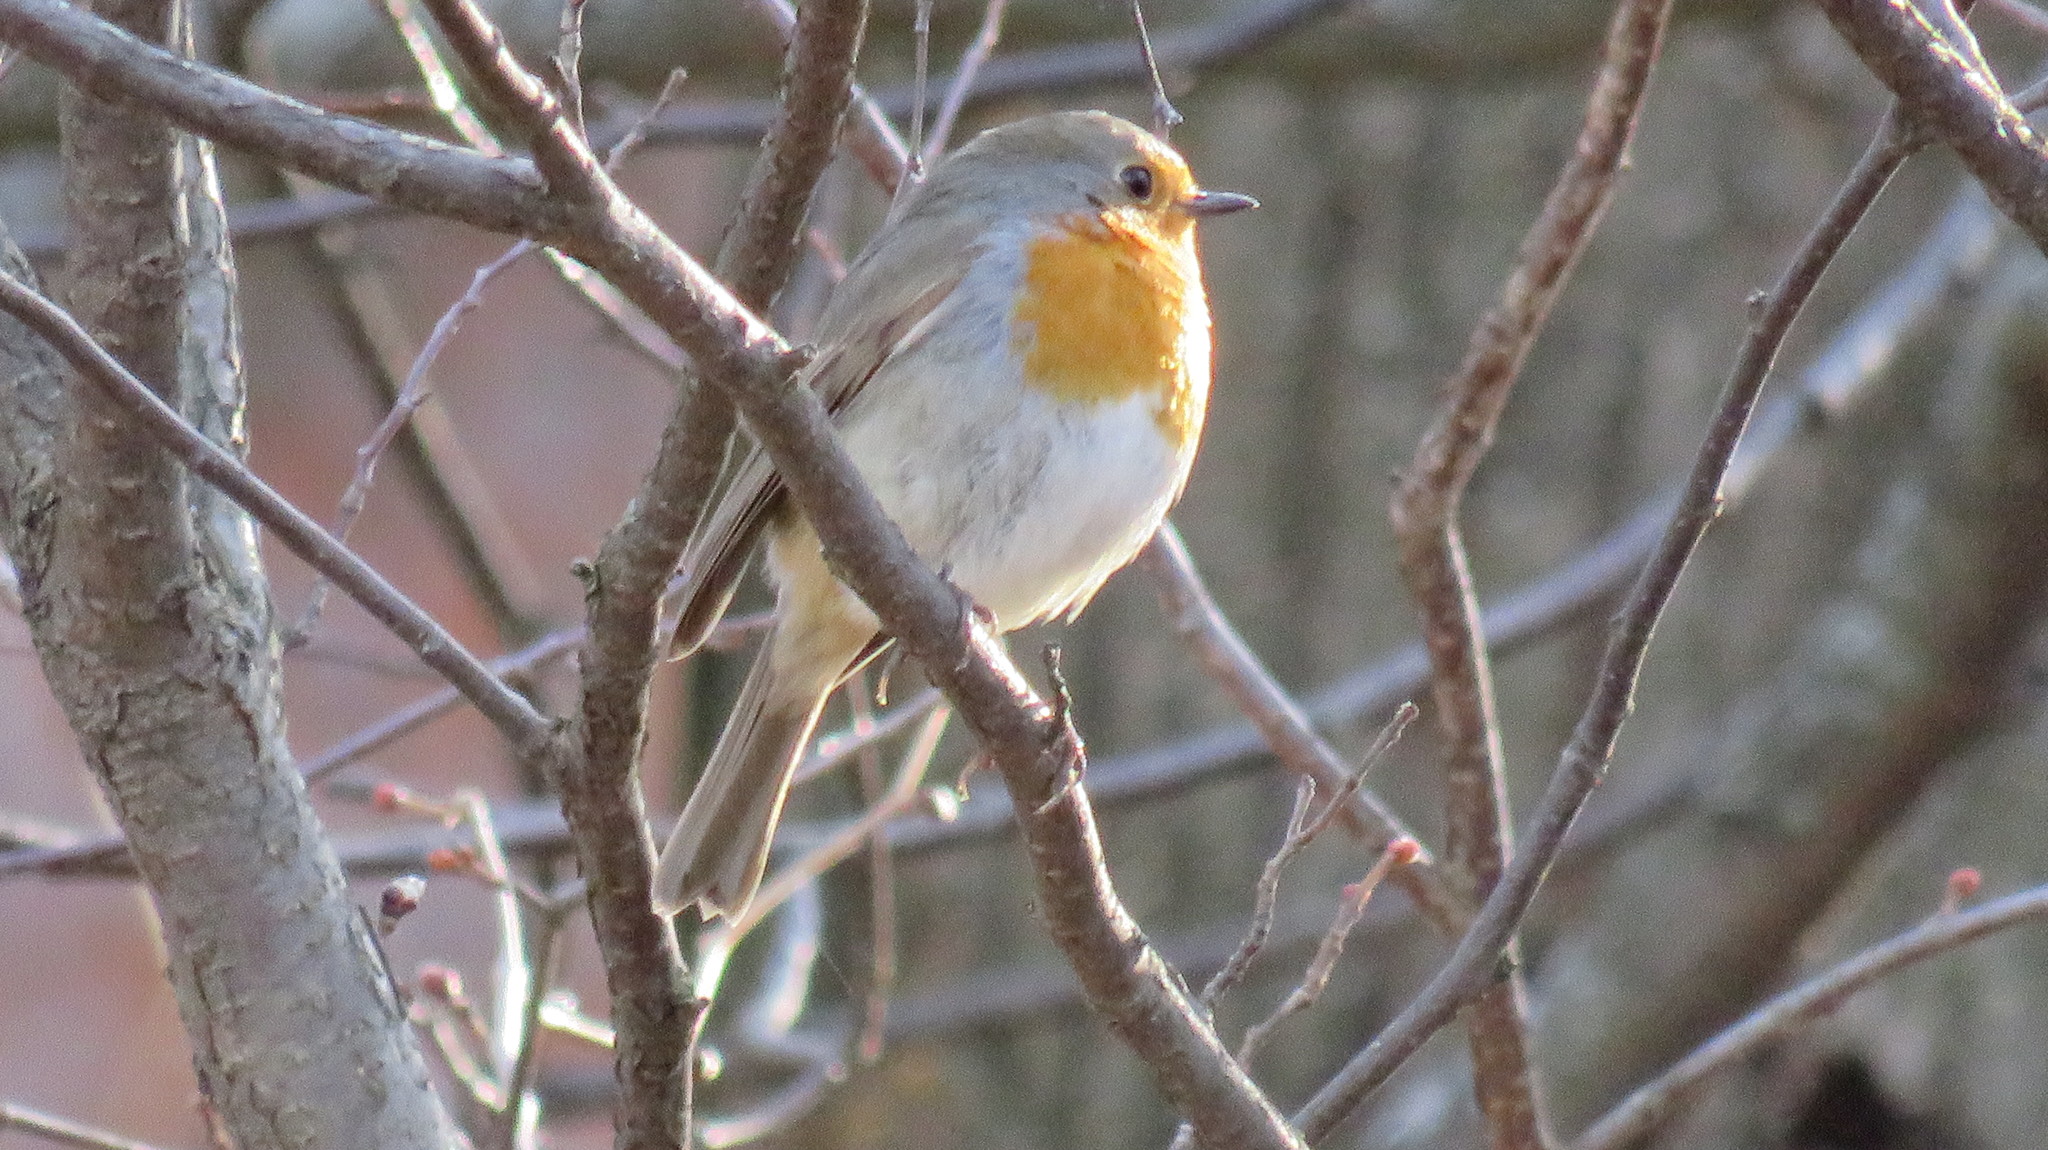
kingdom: Animalia
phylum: Chordata
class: Aves
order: Passeriformes
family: Muscicapidae
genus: Erithacus
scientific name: Erithacus rubecula
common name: European robin
